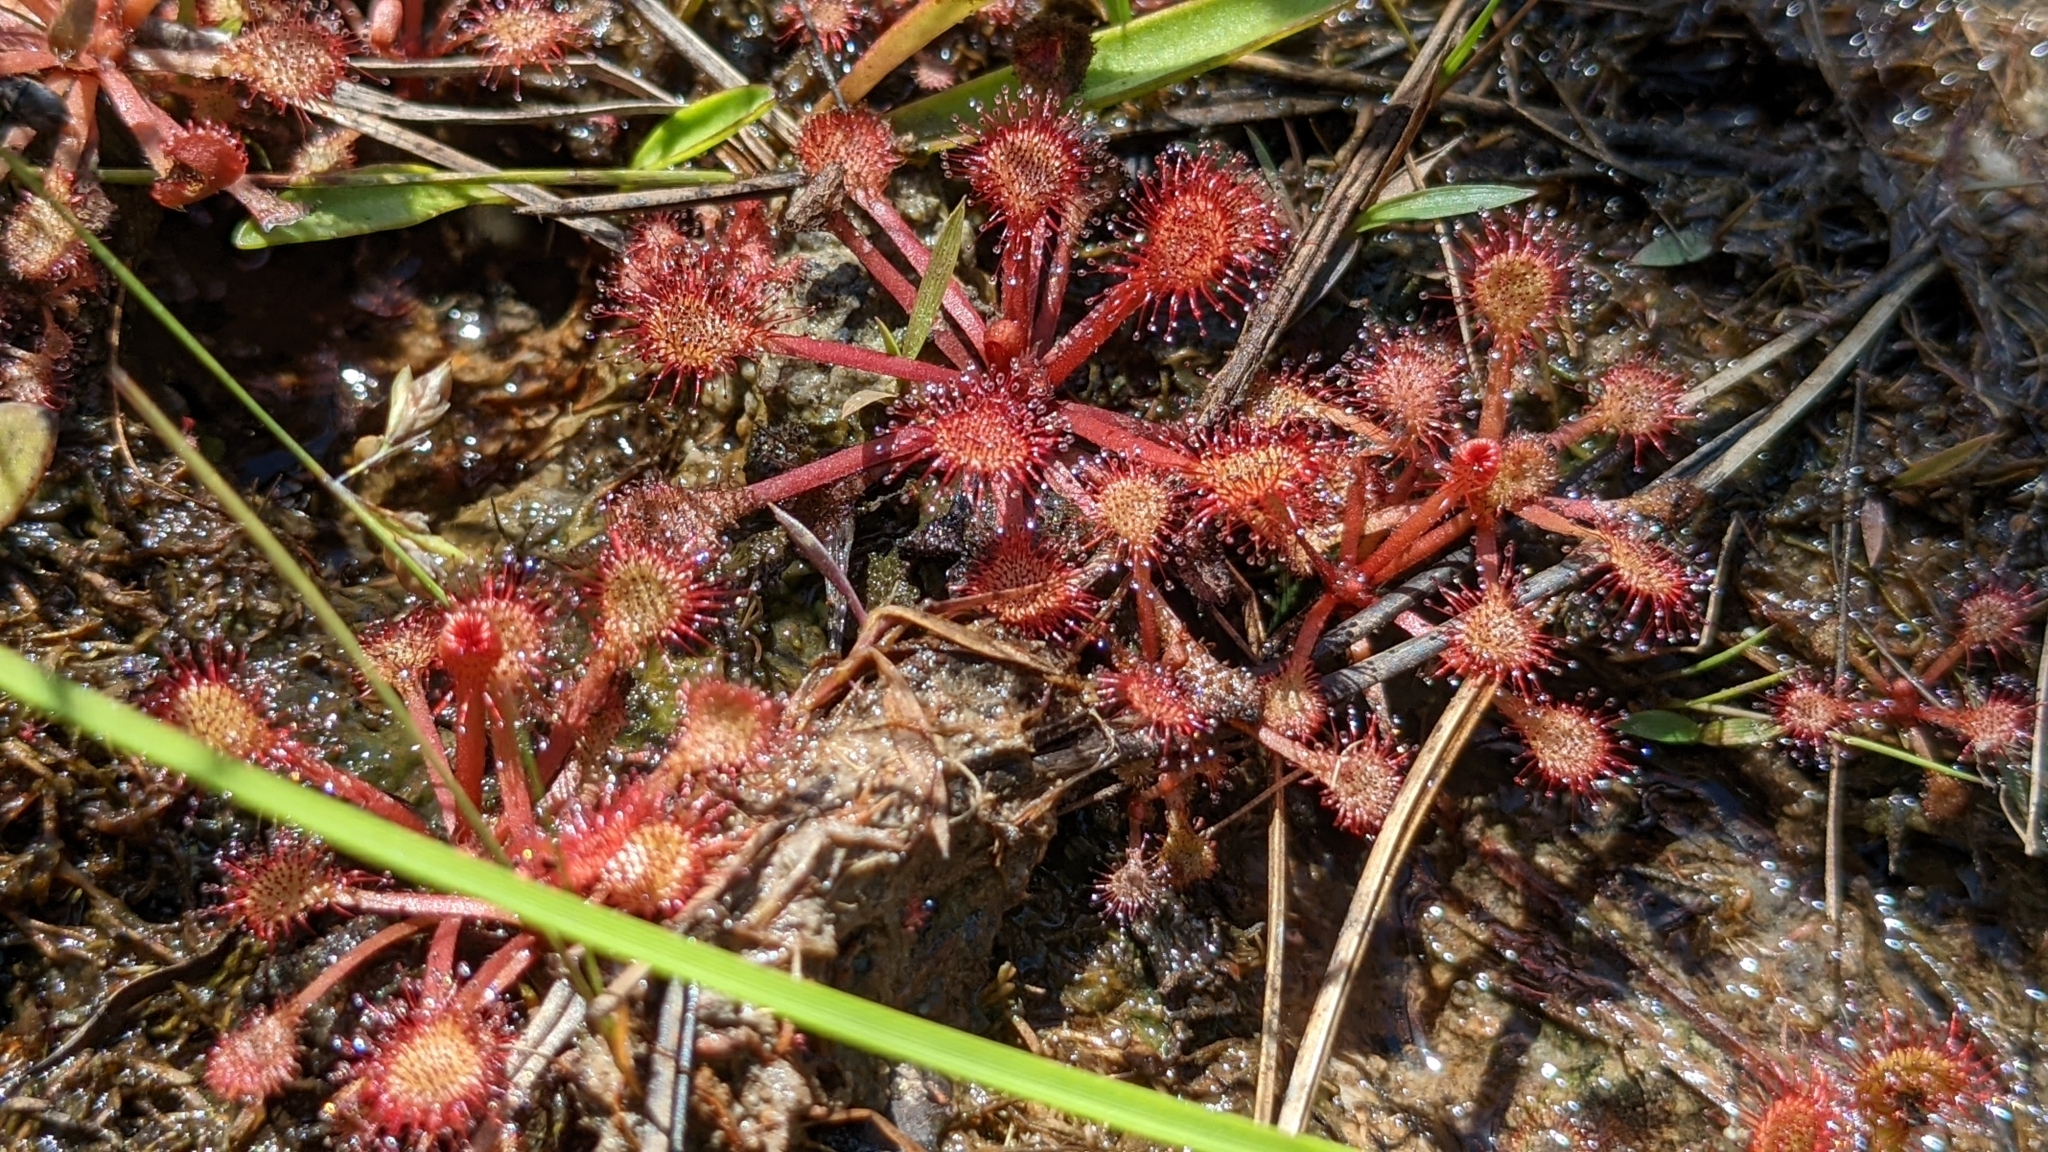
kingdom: Plantae
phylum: Tracheophyta
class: Magnoliopsida
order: Caryophyllales
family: Droseraceae
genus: Drosera
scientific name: Drosera capillaris
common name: Pink sundew
